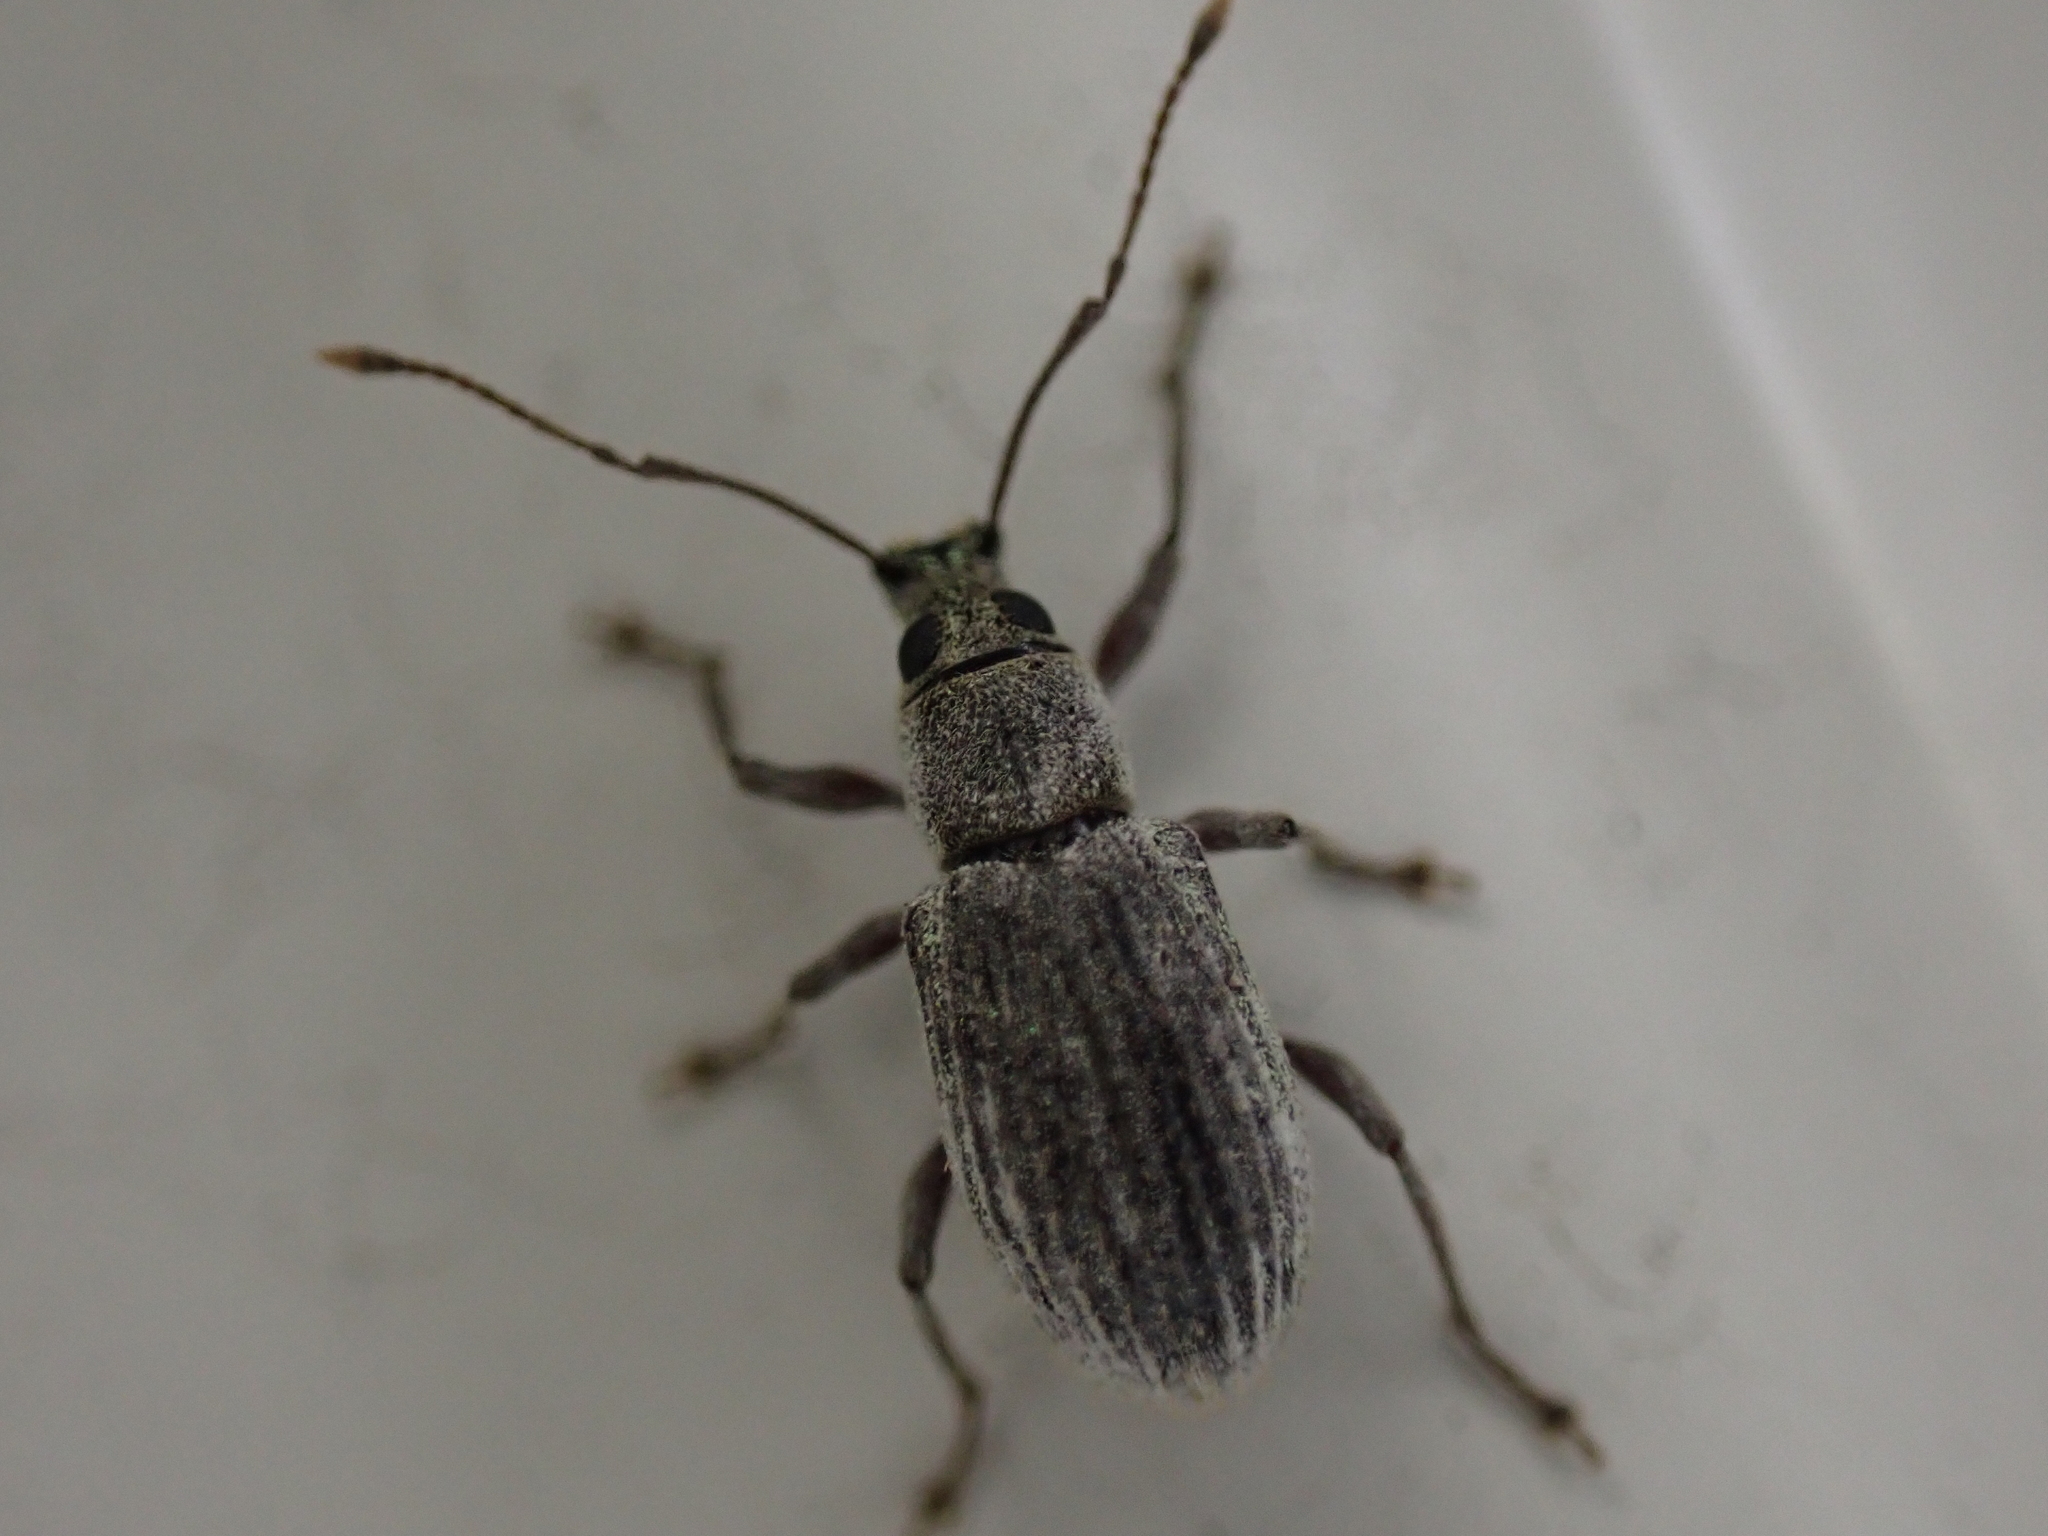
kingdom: Animalia
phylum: Arthropoda
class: Insecta
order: Coleoptera
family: Curculionidae
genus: Cyrtepistomus
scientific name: Cyrtepistomus castaneus
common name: Weevil
